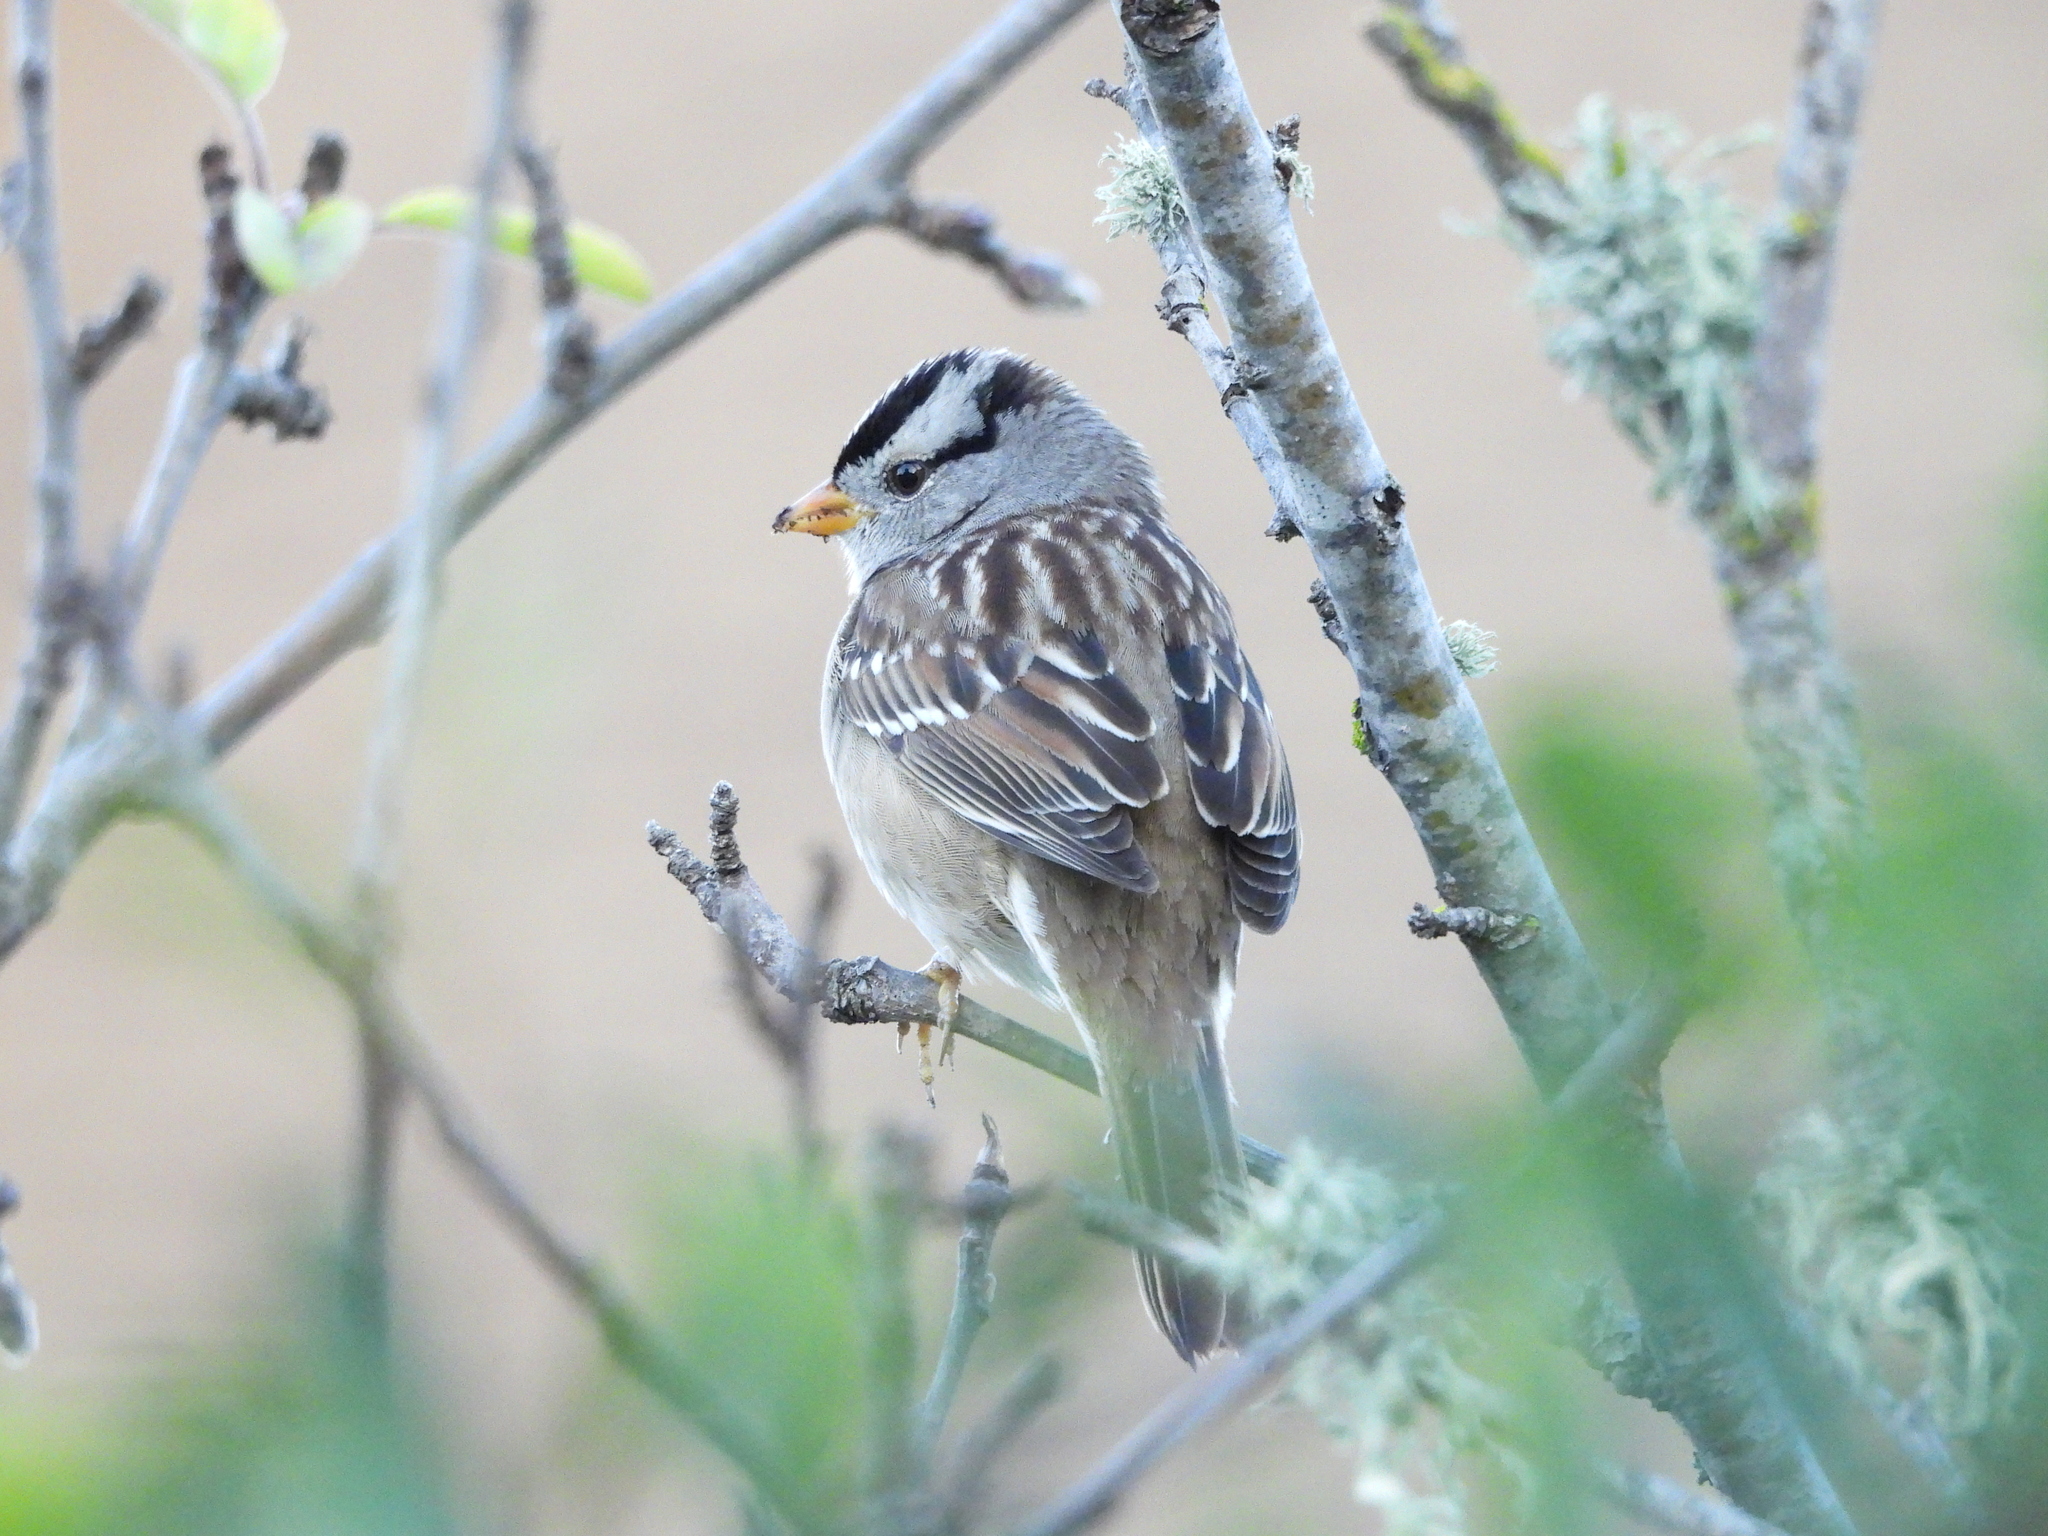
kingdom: Animalia
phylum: Chordata
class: Aves
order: Passeriformes
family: Passerellidae
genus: Zonotrichia
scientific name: Zonotrichia leucophrys
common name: White-crowned sparrow
